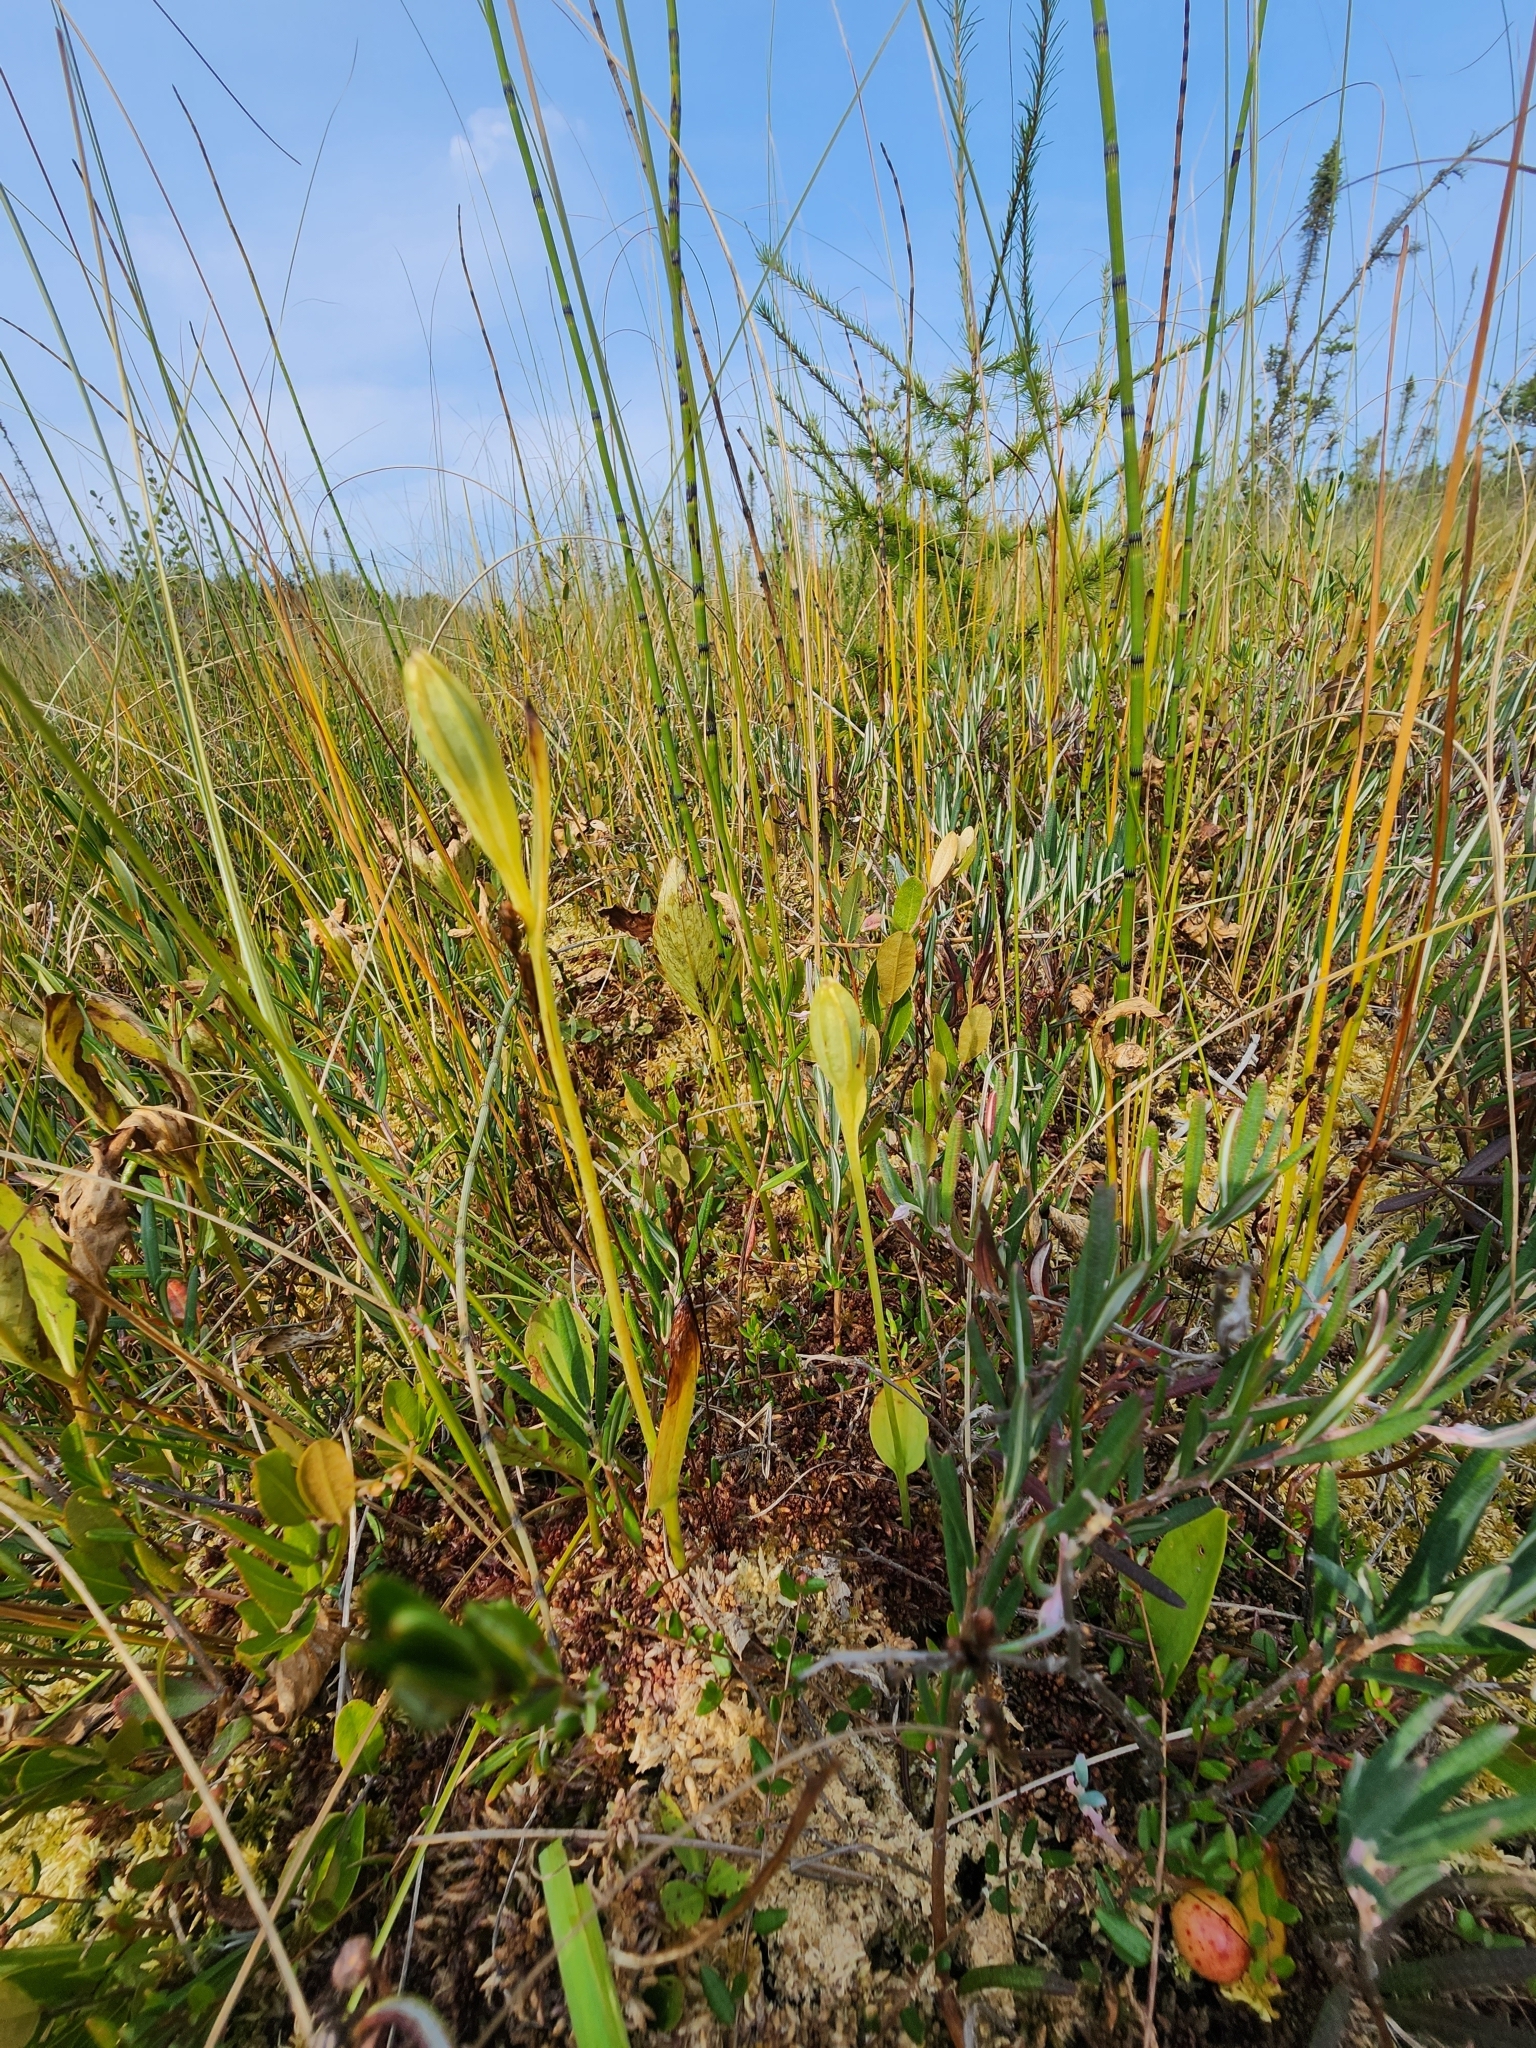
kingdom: Plantae
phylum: Tracheophyta
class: Liliopsida
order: Asparagales
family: Orchidaceae
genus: Pogonia
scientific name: Pogonia ophioglossoides
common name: Rose pogonia
